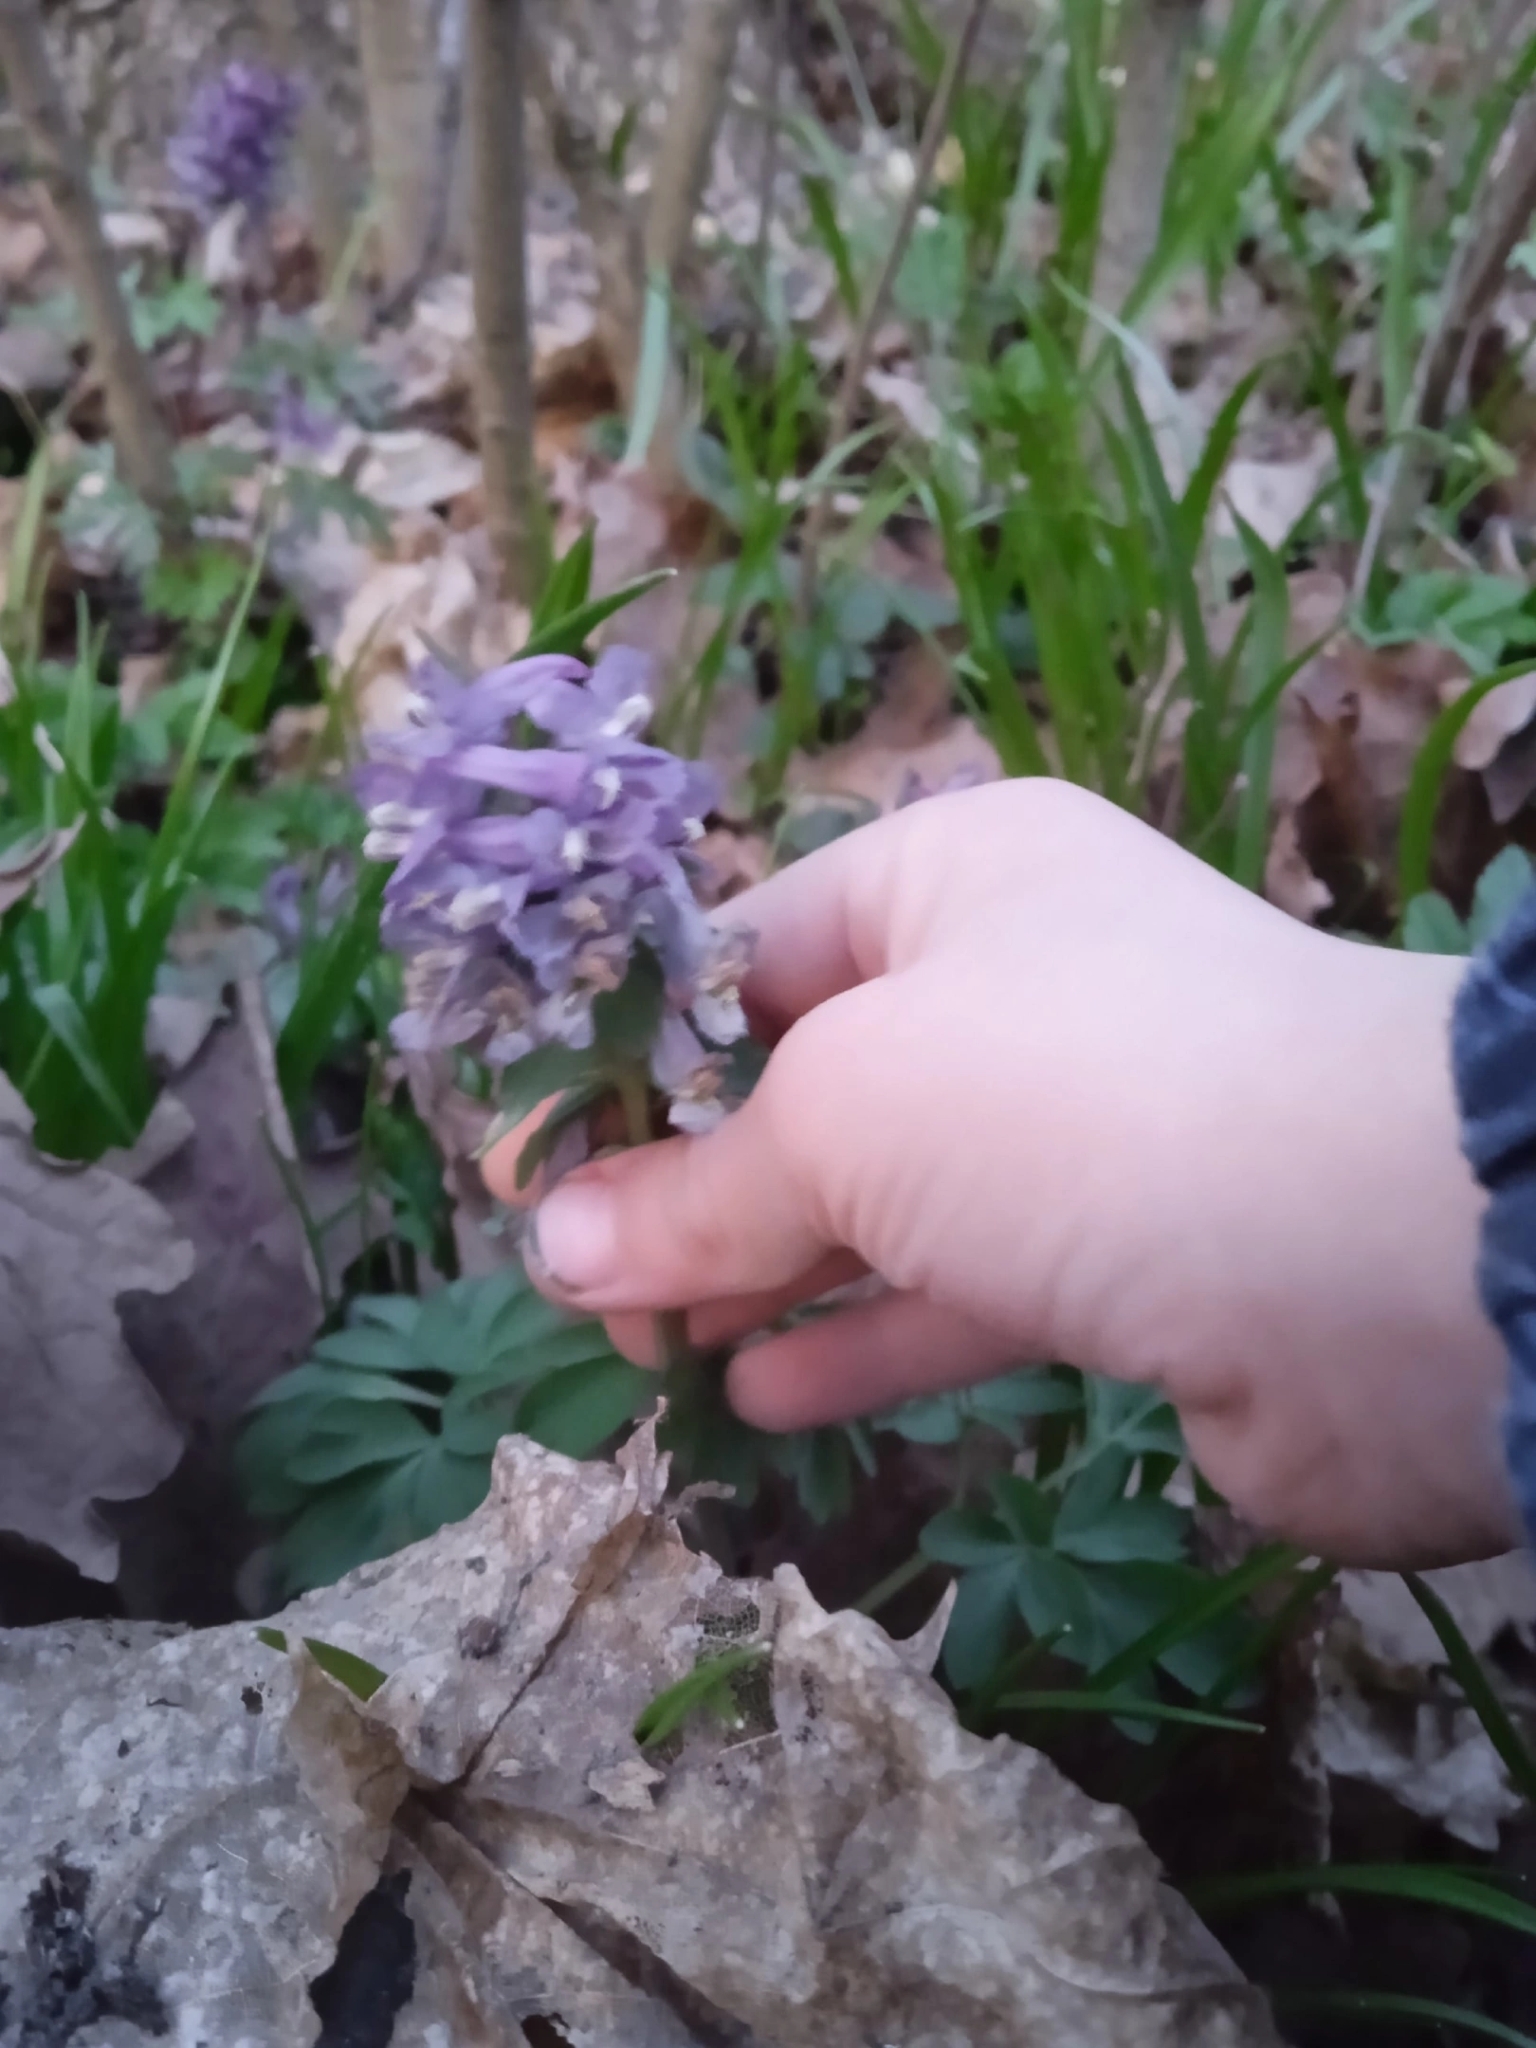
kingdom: Plantae
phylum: Tracheophyta
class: Magnoliopsida
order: Ranunculales
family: Papaveraceae
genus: Corydalis
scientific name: Corydalis solida
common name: Bird-in-a-bush
